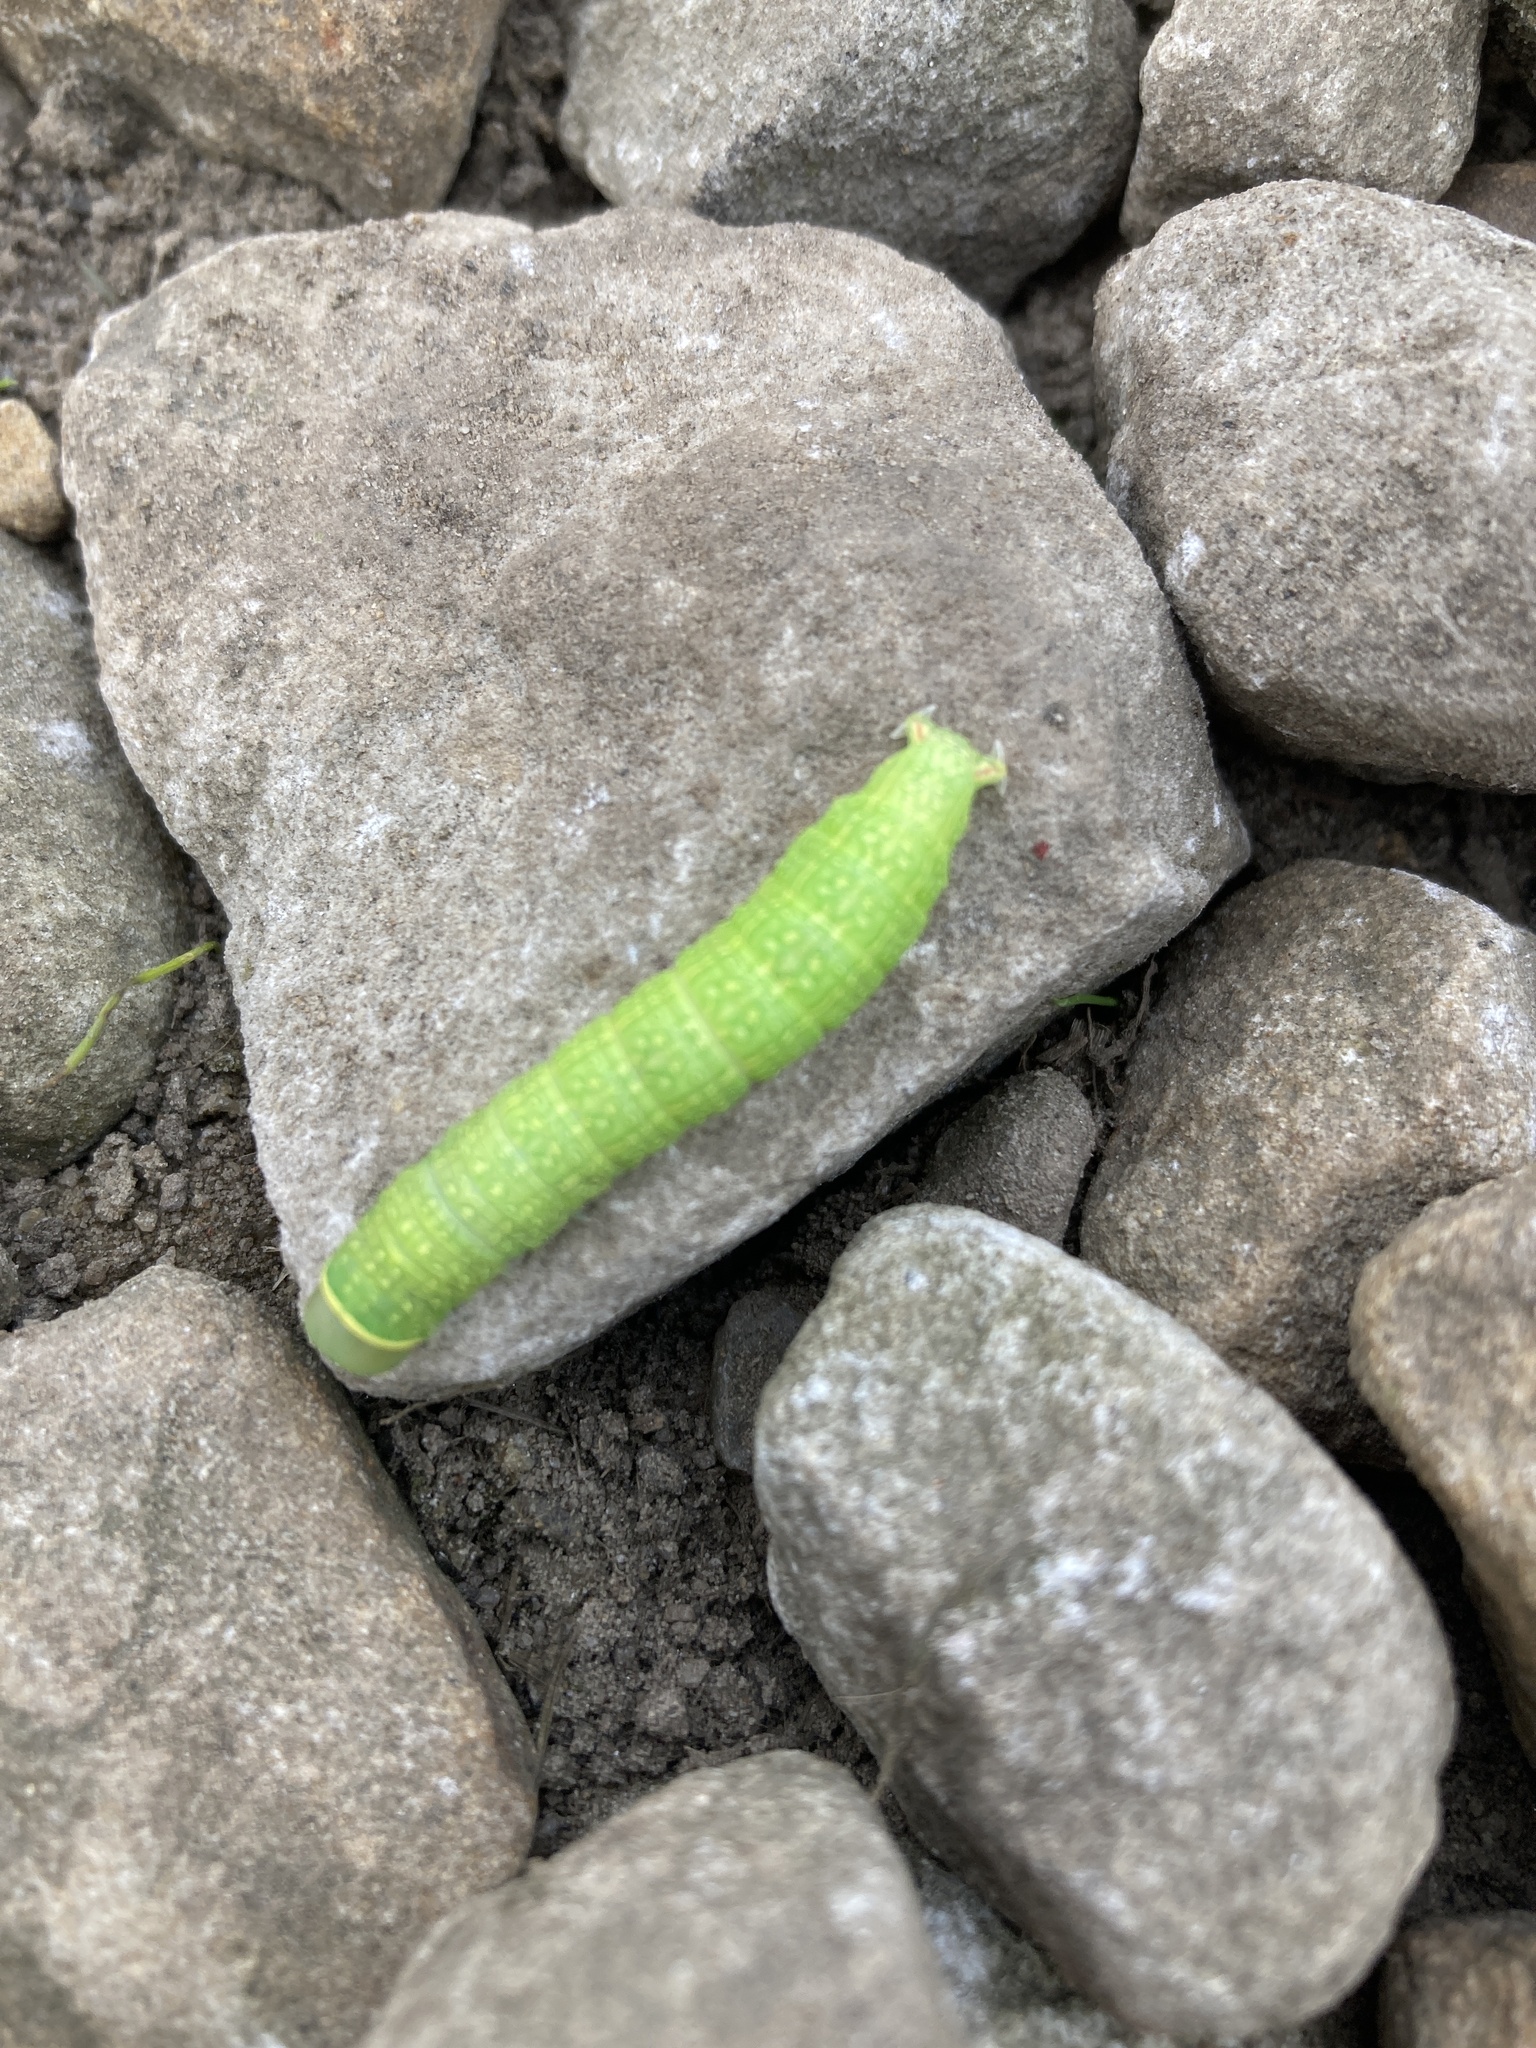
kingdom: Animalia
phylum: Arthropoda
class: Insecta
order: Lepidoptera
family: Nolidae
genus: Pseudoips
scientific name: Pseudoips prasinana
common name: Green silver-lines
